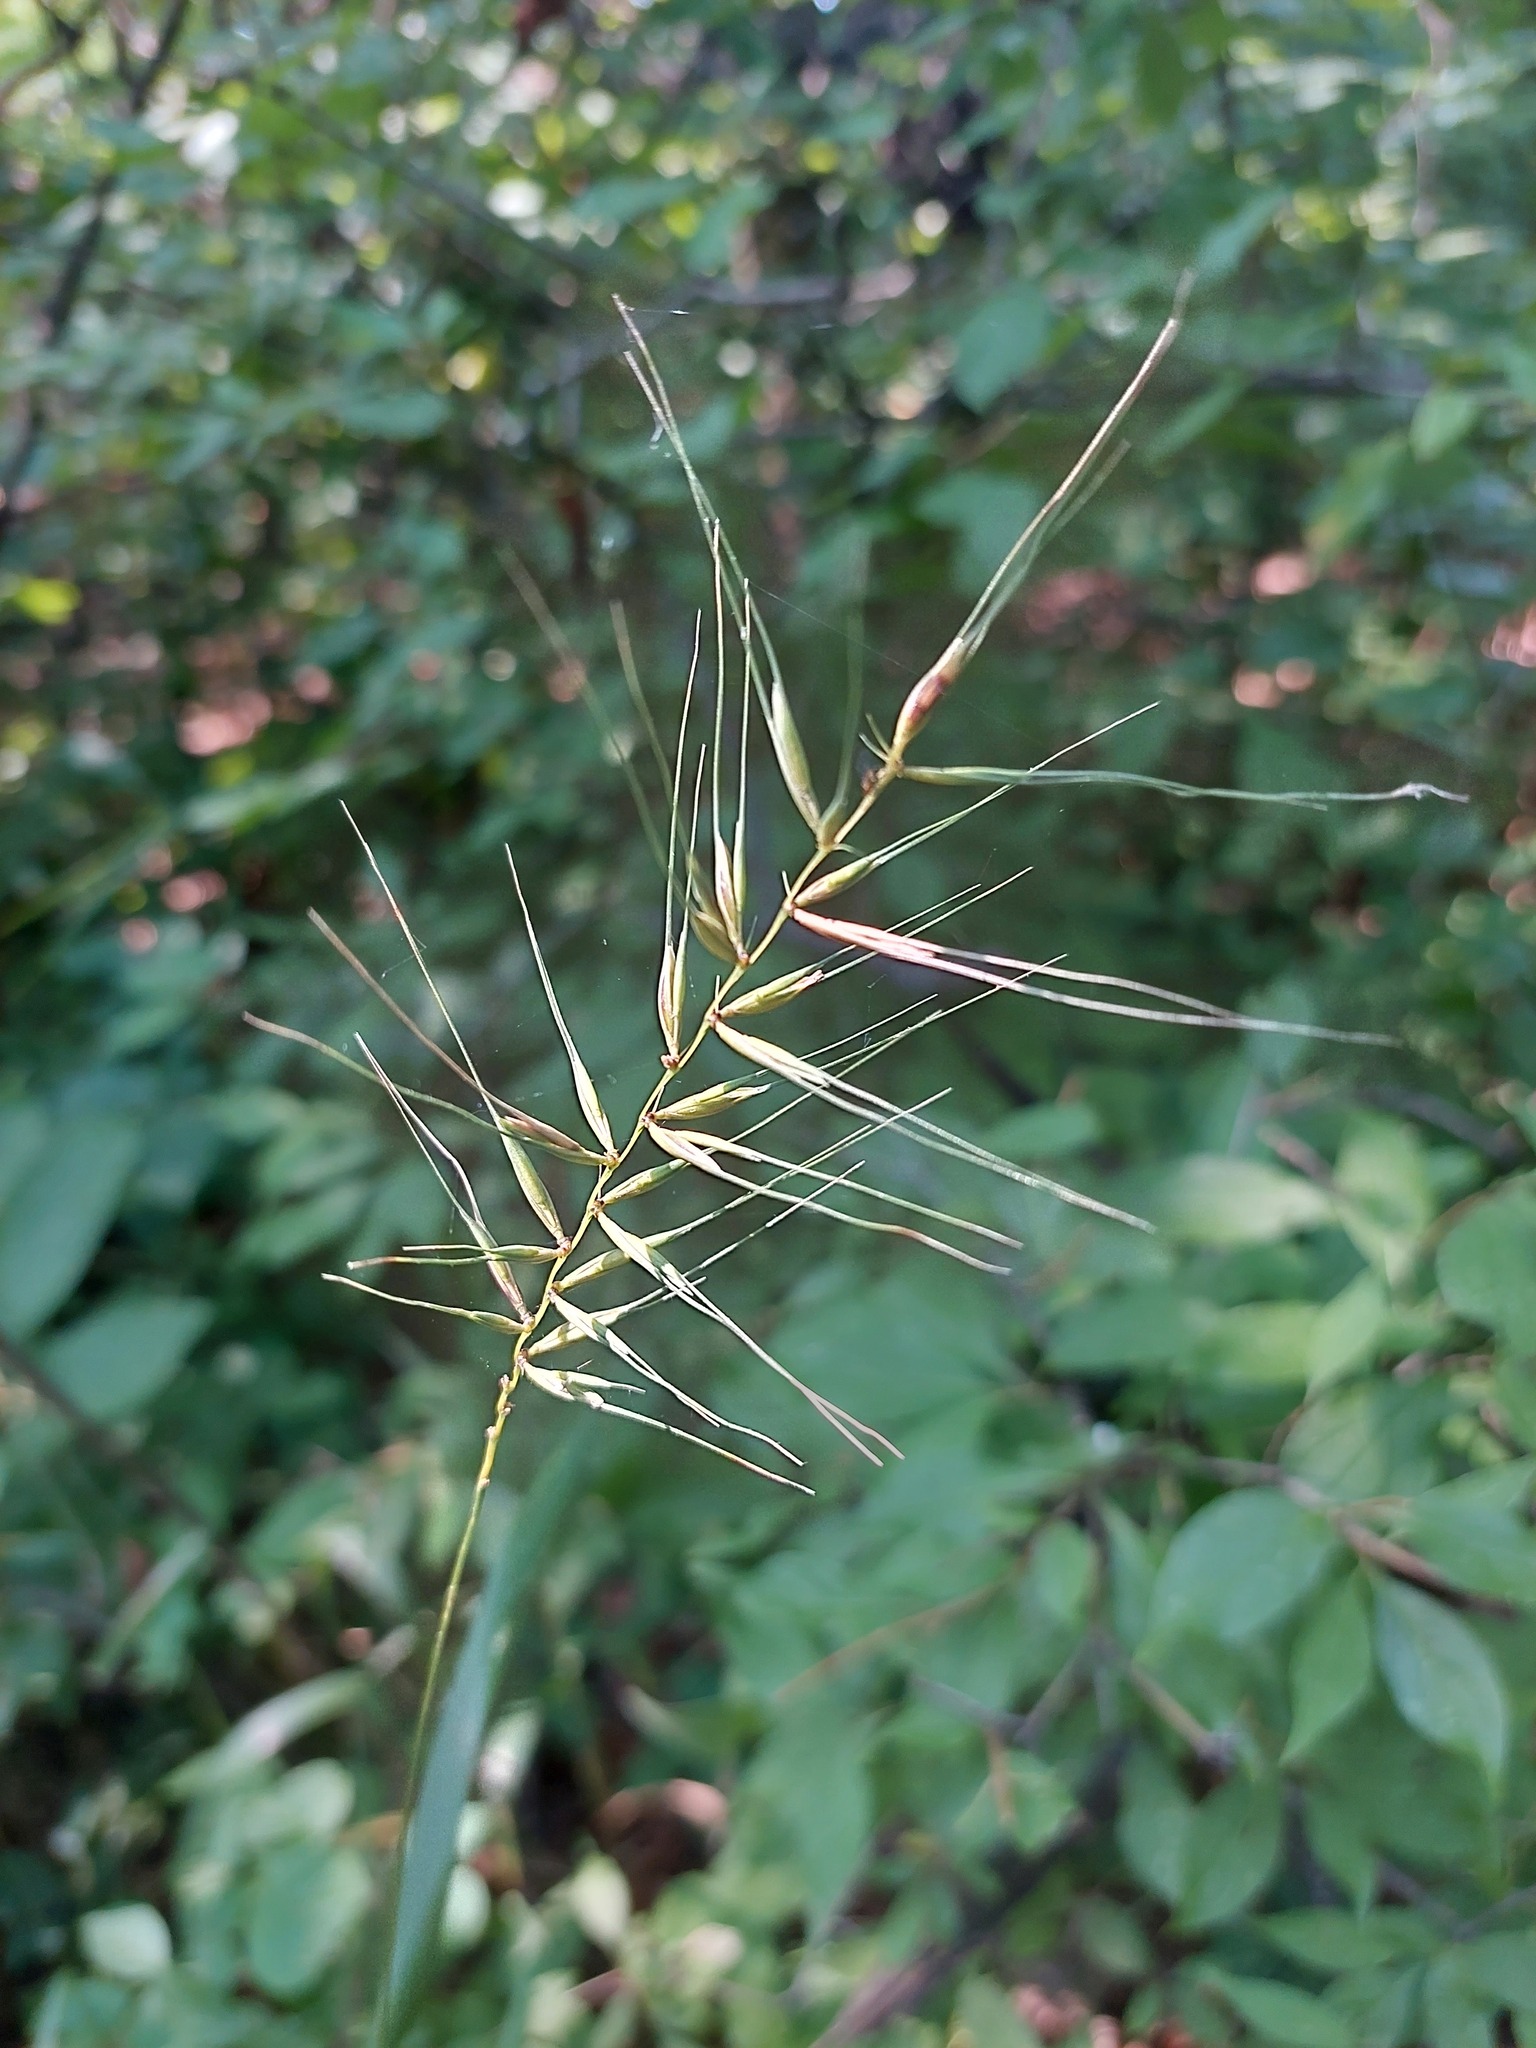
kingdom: Plantae
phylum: Tracheophyta
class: Liliopsida
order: Poales
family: Poaceae
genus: Elymus
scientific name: Elymus hystrix
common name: Bottlebrush grass
